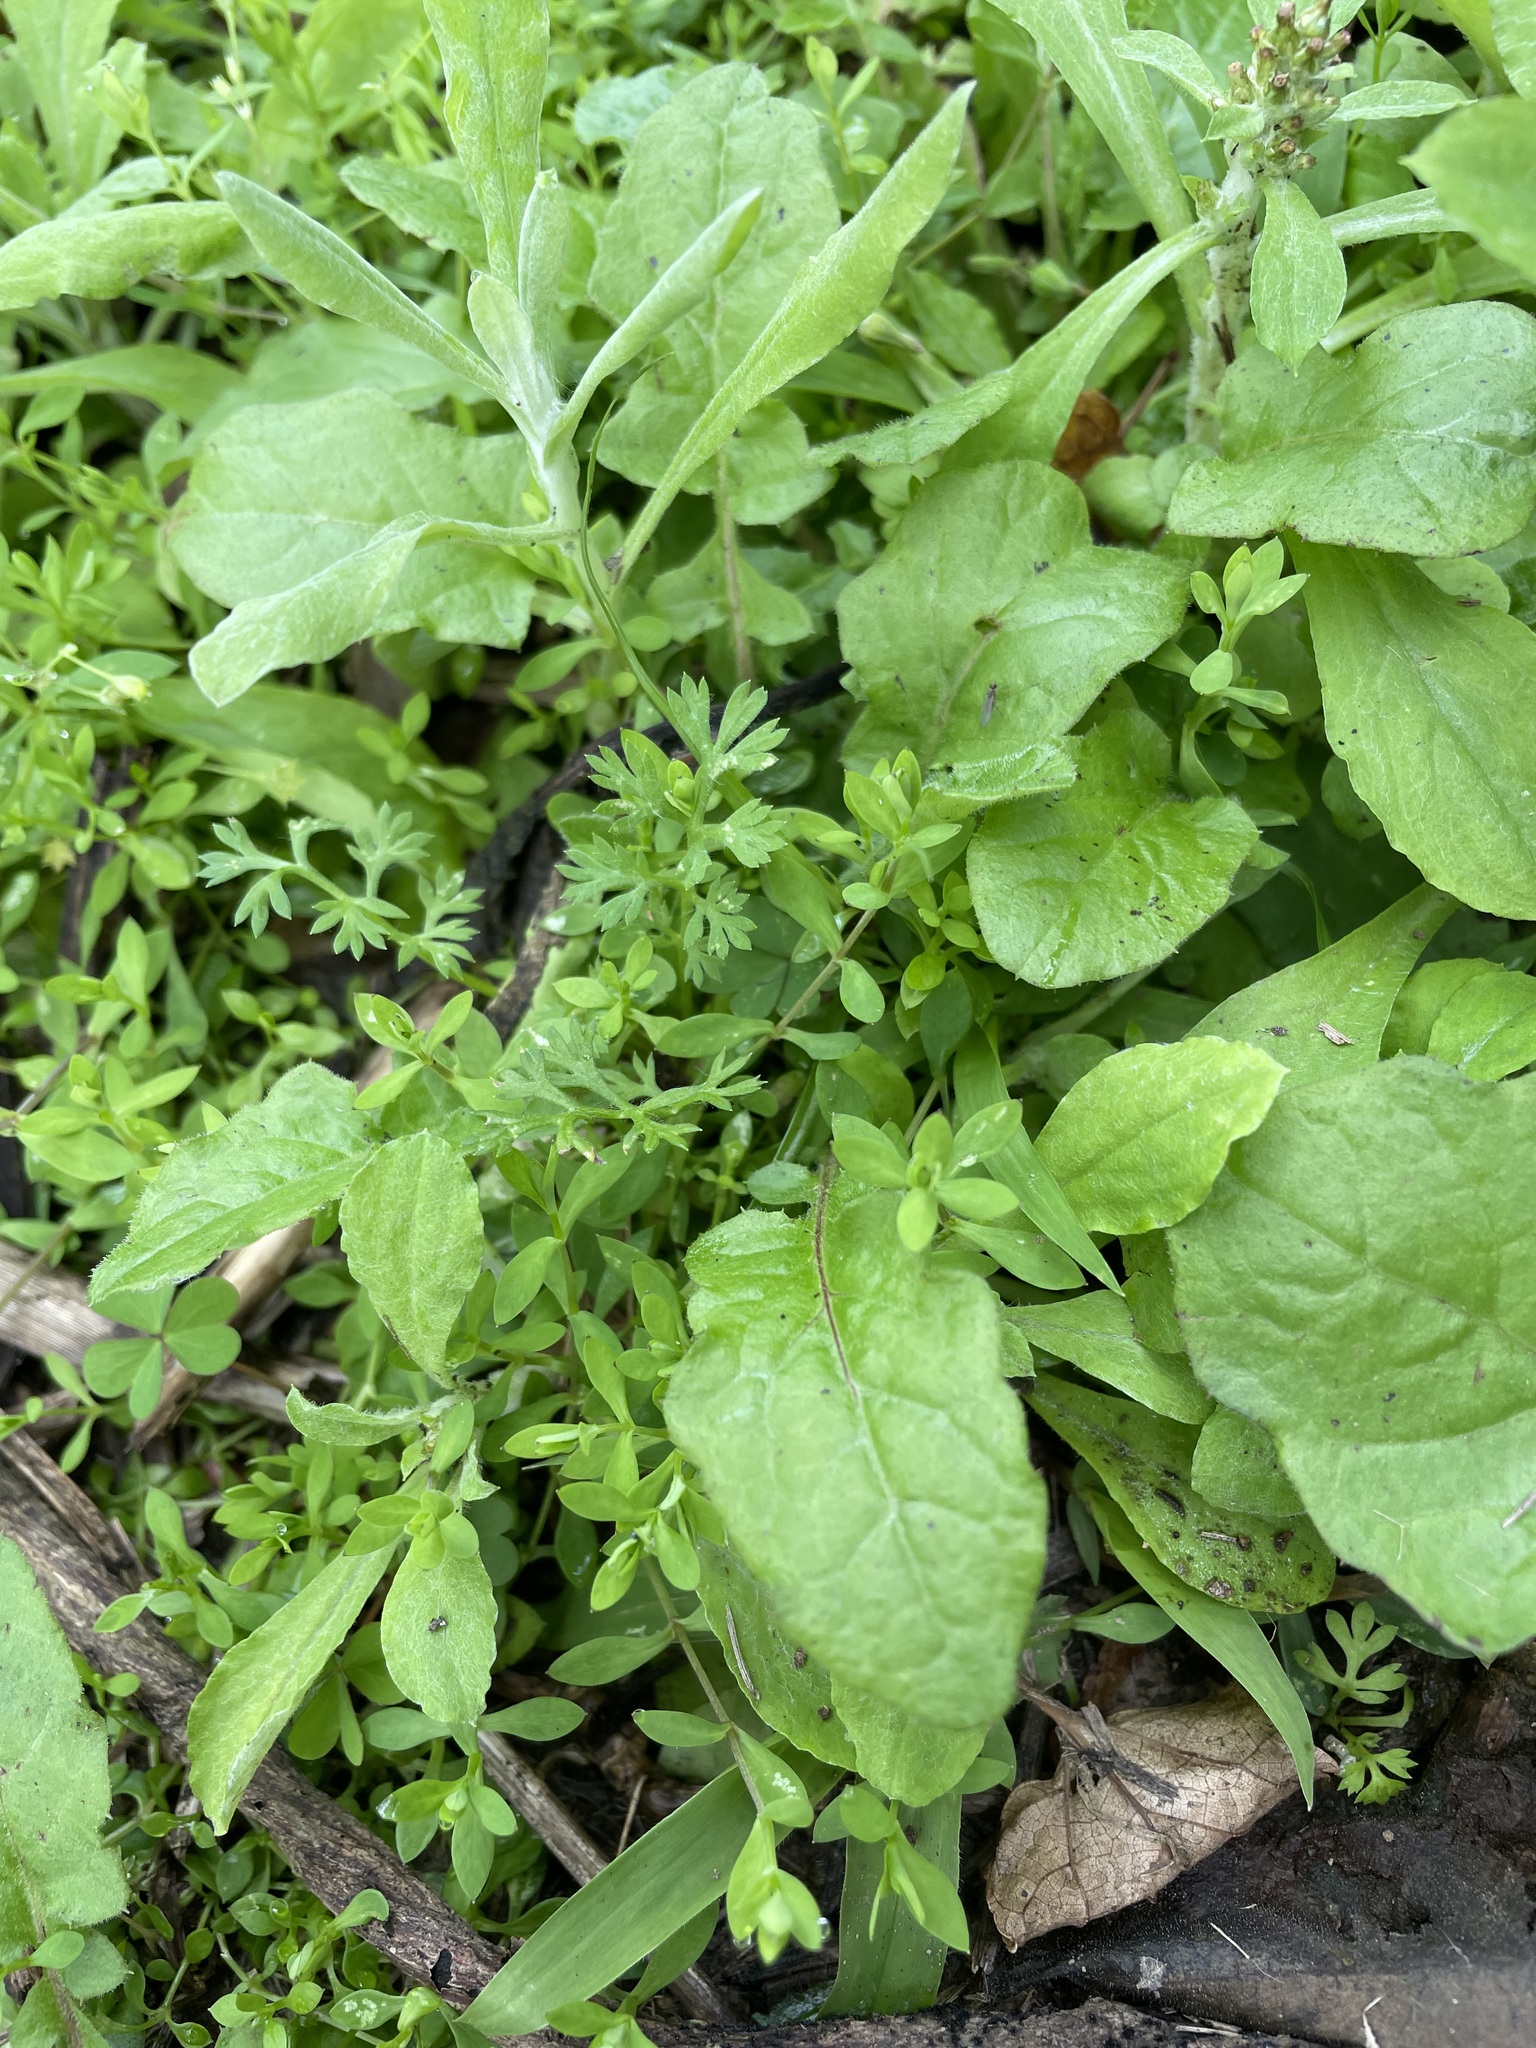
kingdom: Plantae
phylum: Tracheophyta
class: Magnoliopsida
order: Asterales
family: Asteraceae
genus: Soliva
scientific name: Soliva anthemifolia
